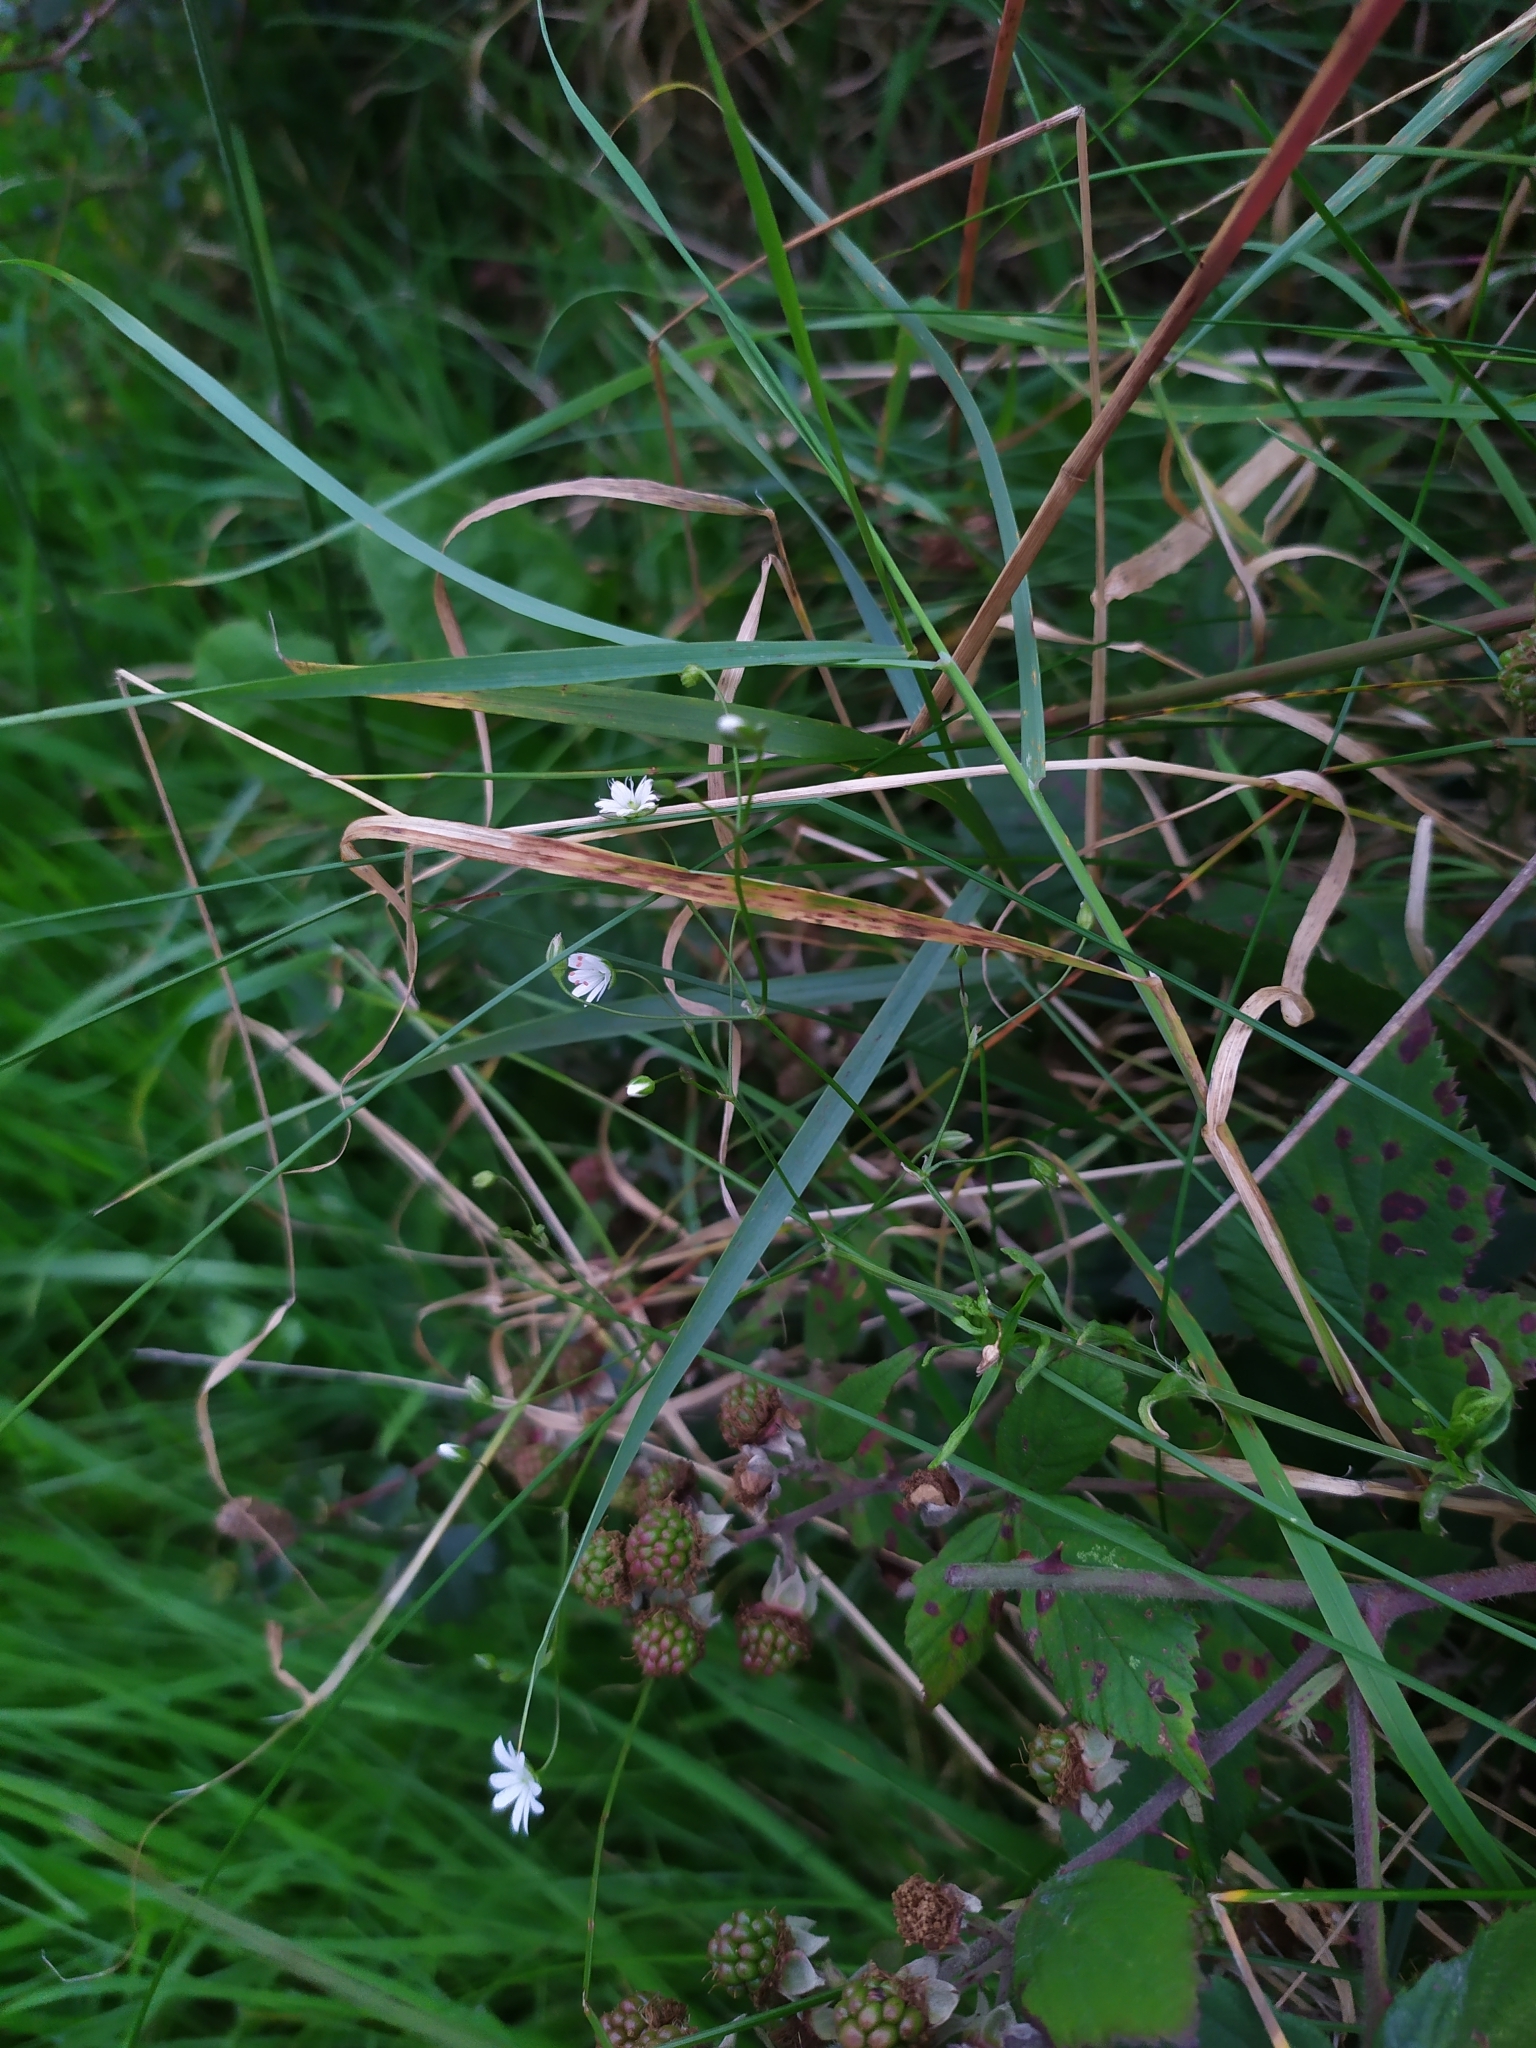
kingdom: Plantae
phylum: Tracheophyta
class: Magnoliopsida
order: Caryophyllales
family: Caryophyllaceae
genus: Stellaria
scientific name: Stellaria graminea
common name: Grass-like starwort
